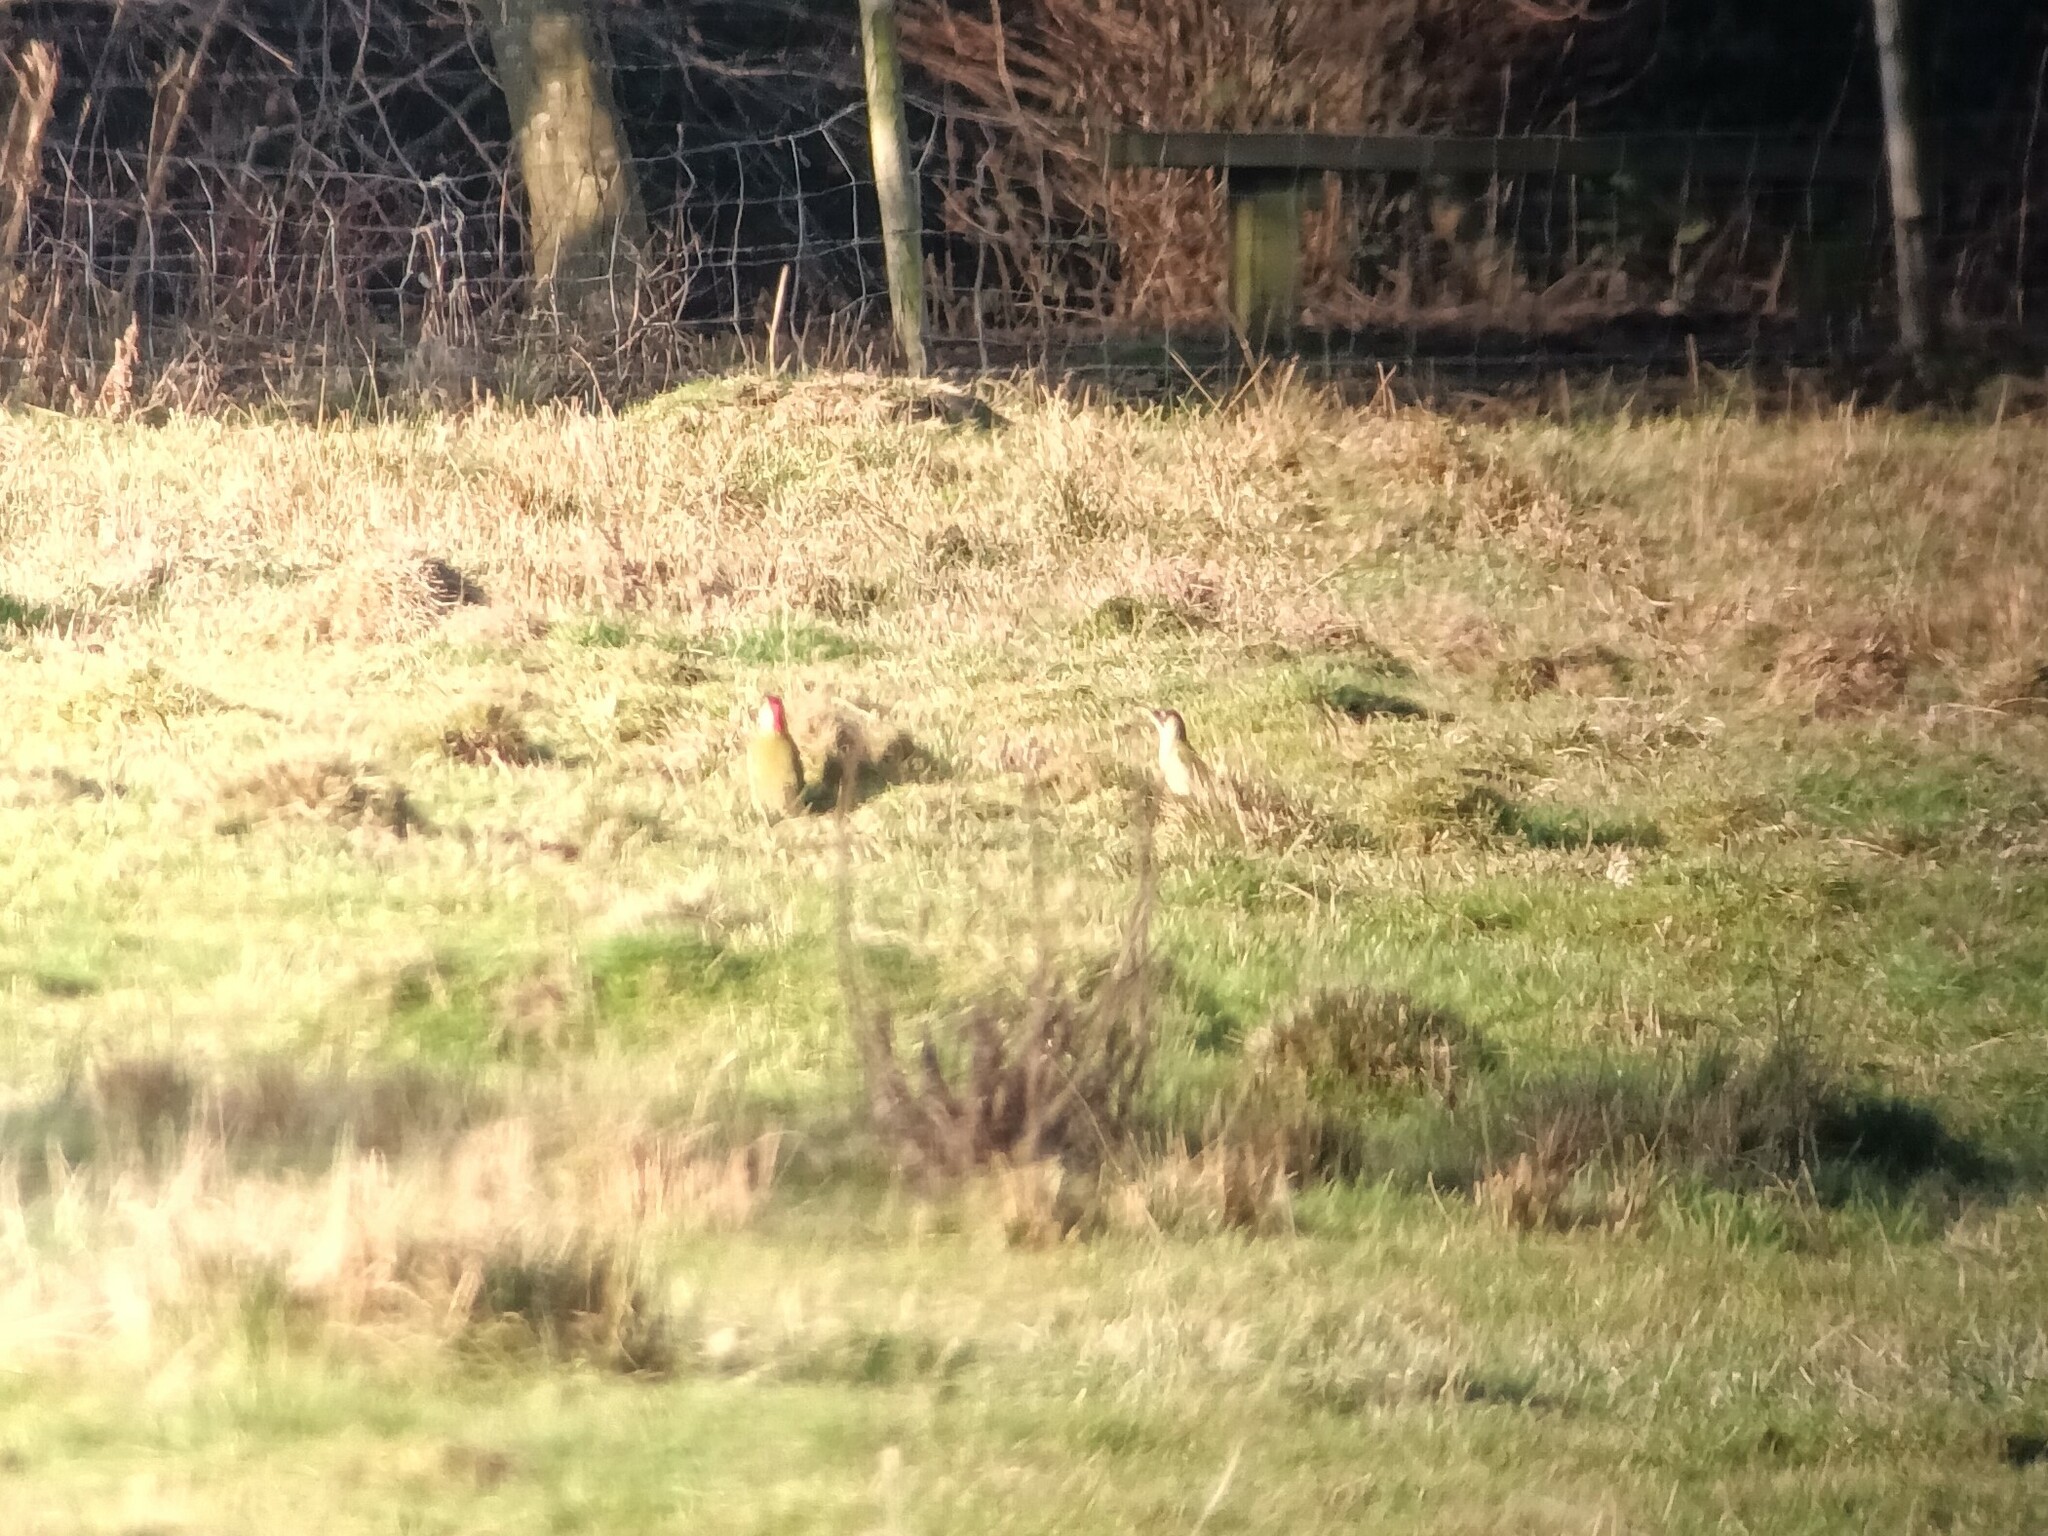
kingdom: Animalia
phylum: Chordata
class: Aves
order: Piciformes
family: Picidae
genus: Picus
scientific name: Picus viridis
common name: European green woodpecker
